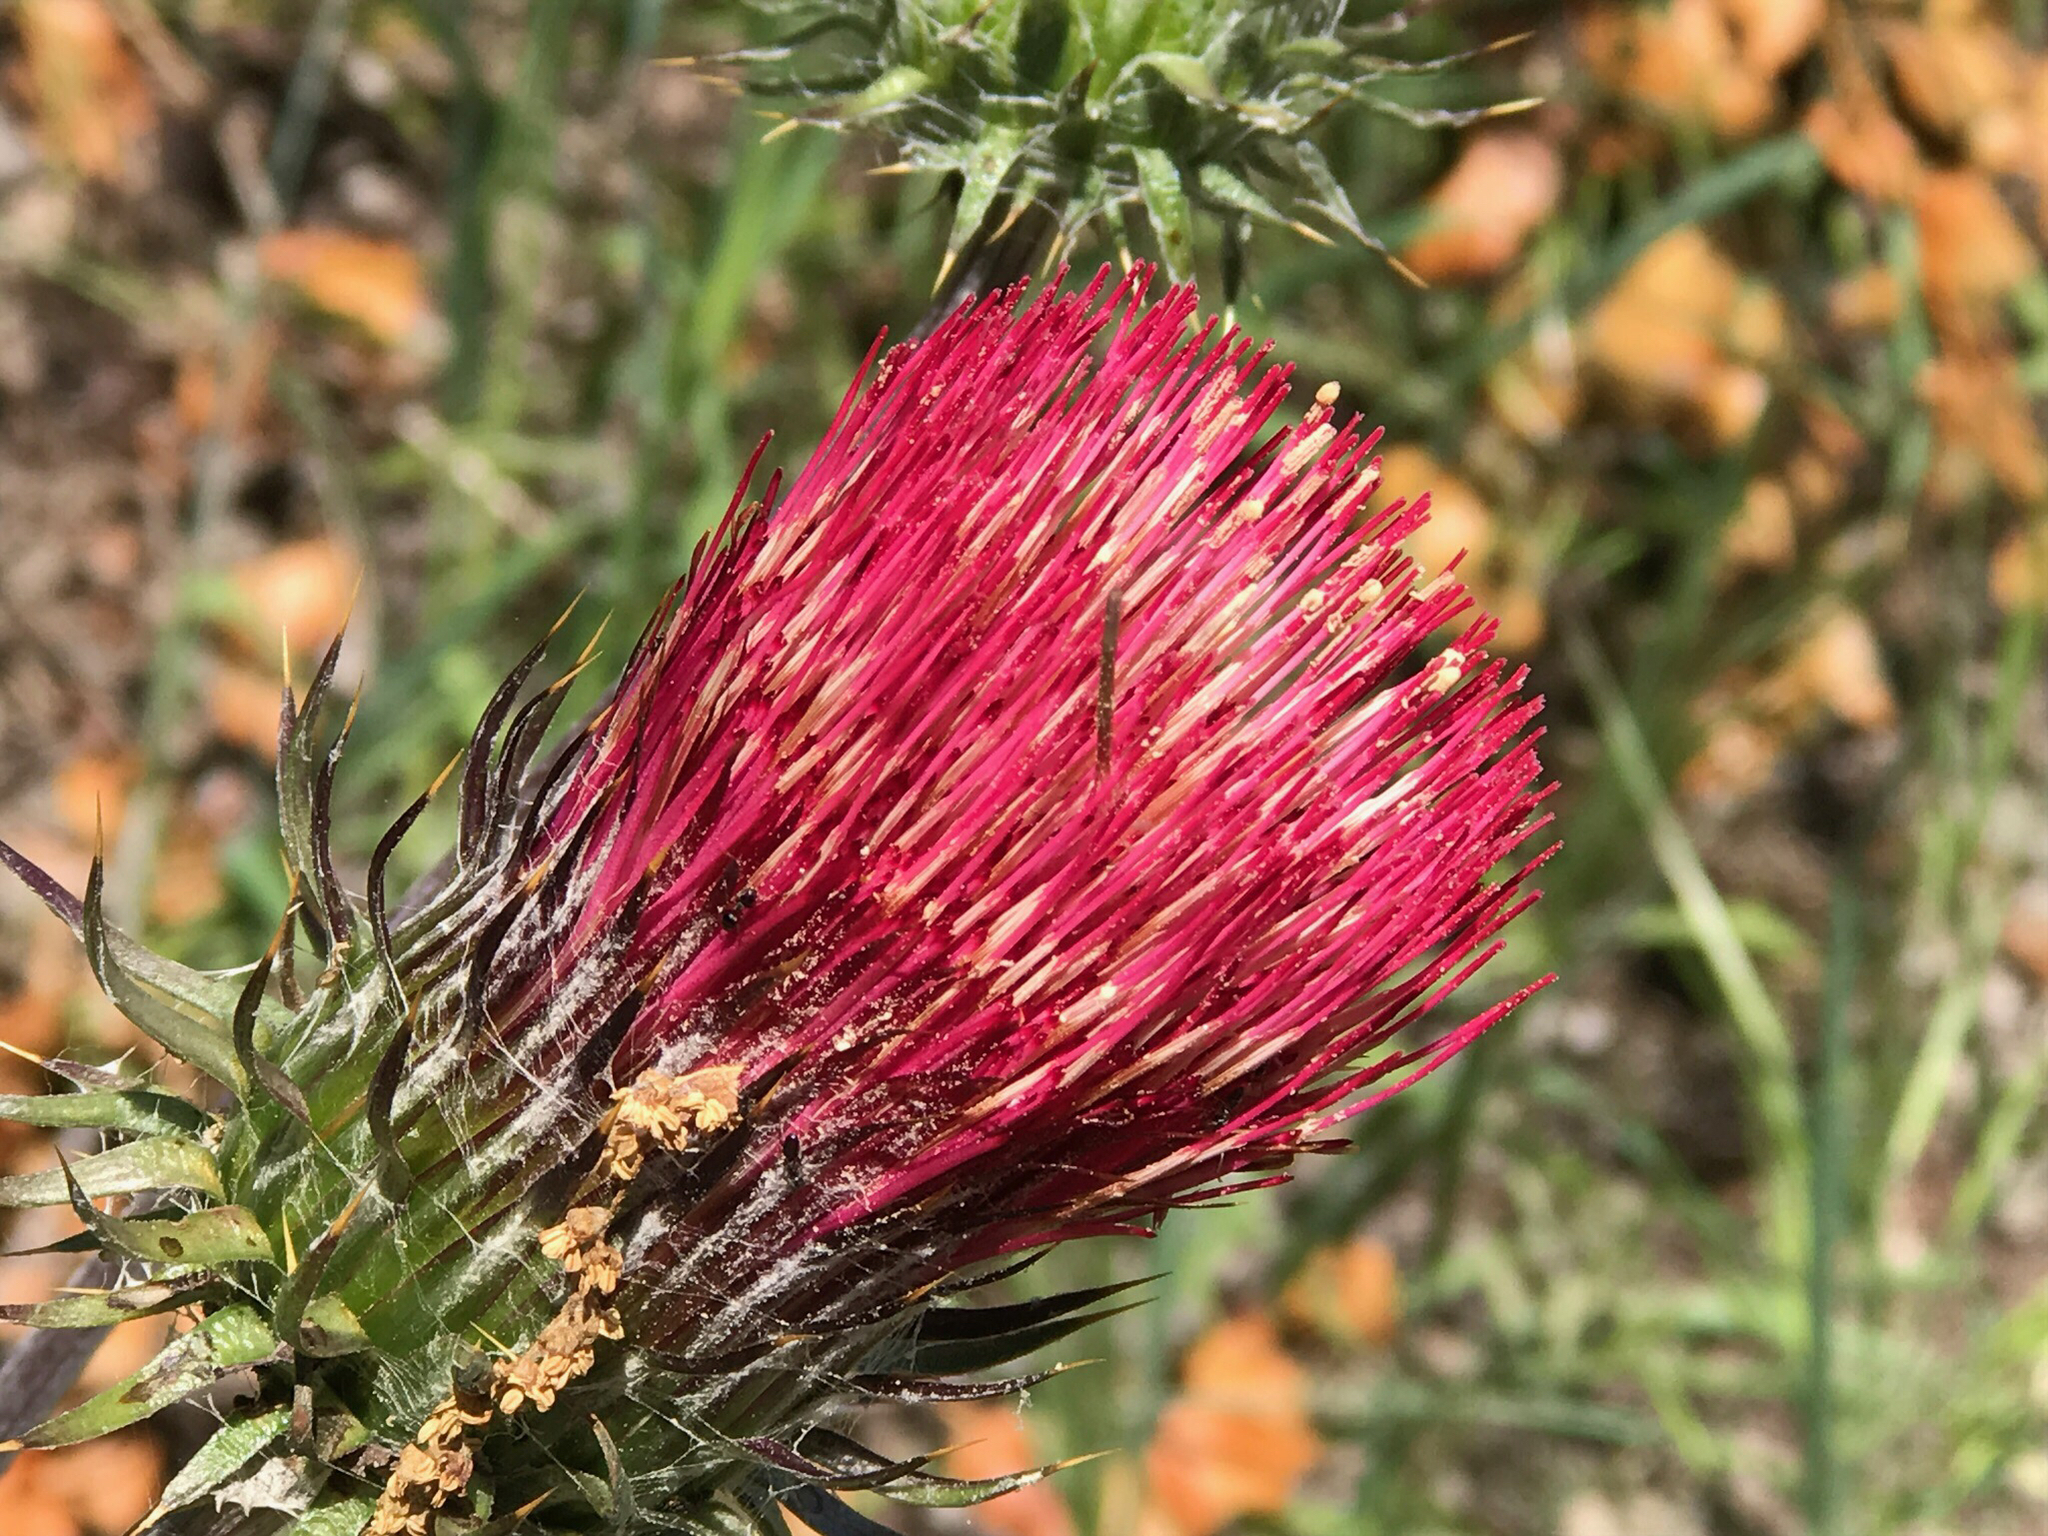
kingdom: Plantae
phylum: Tracheophyta
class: Magnoliopsida
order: Asterales
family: Asteraceae
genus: Cirsium
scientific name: Cirsium occidentale
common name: Western thistle
